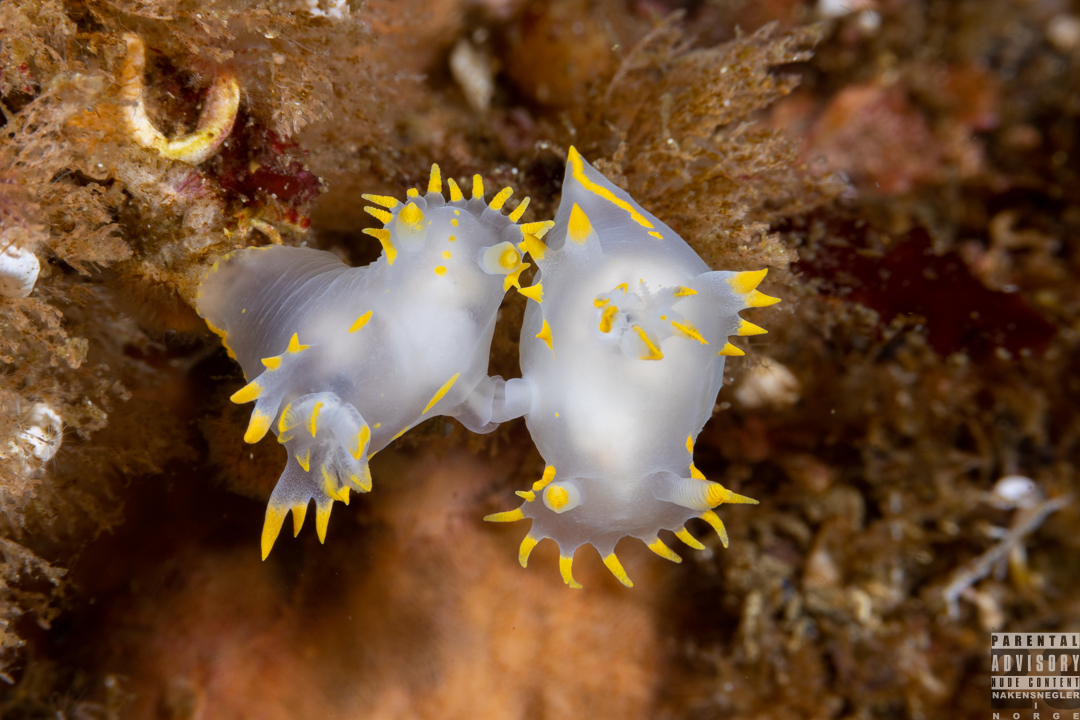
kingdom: Animalia
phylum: Mollusca
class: Gastropoda
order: Nudibranchia
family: Polyceridae
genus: Polycera
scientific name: Polycera faeroensis
